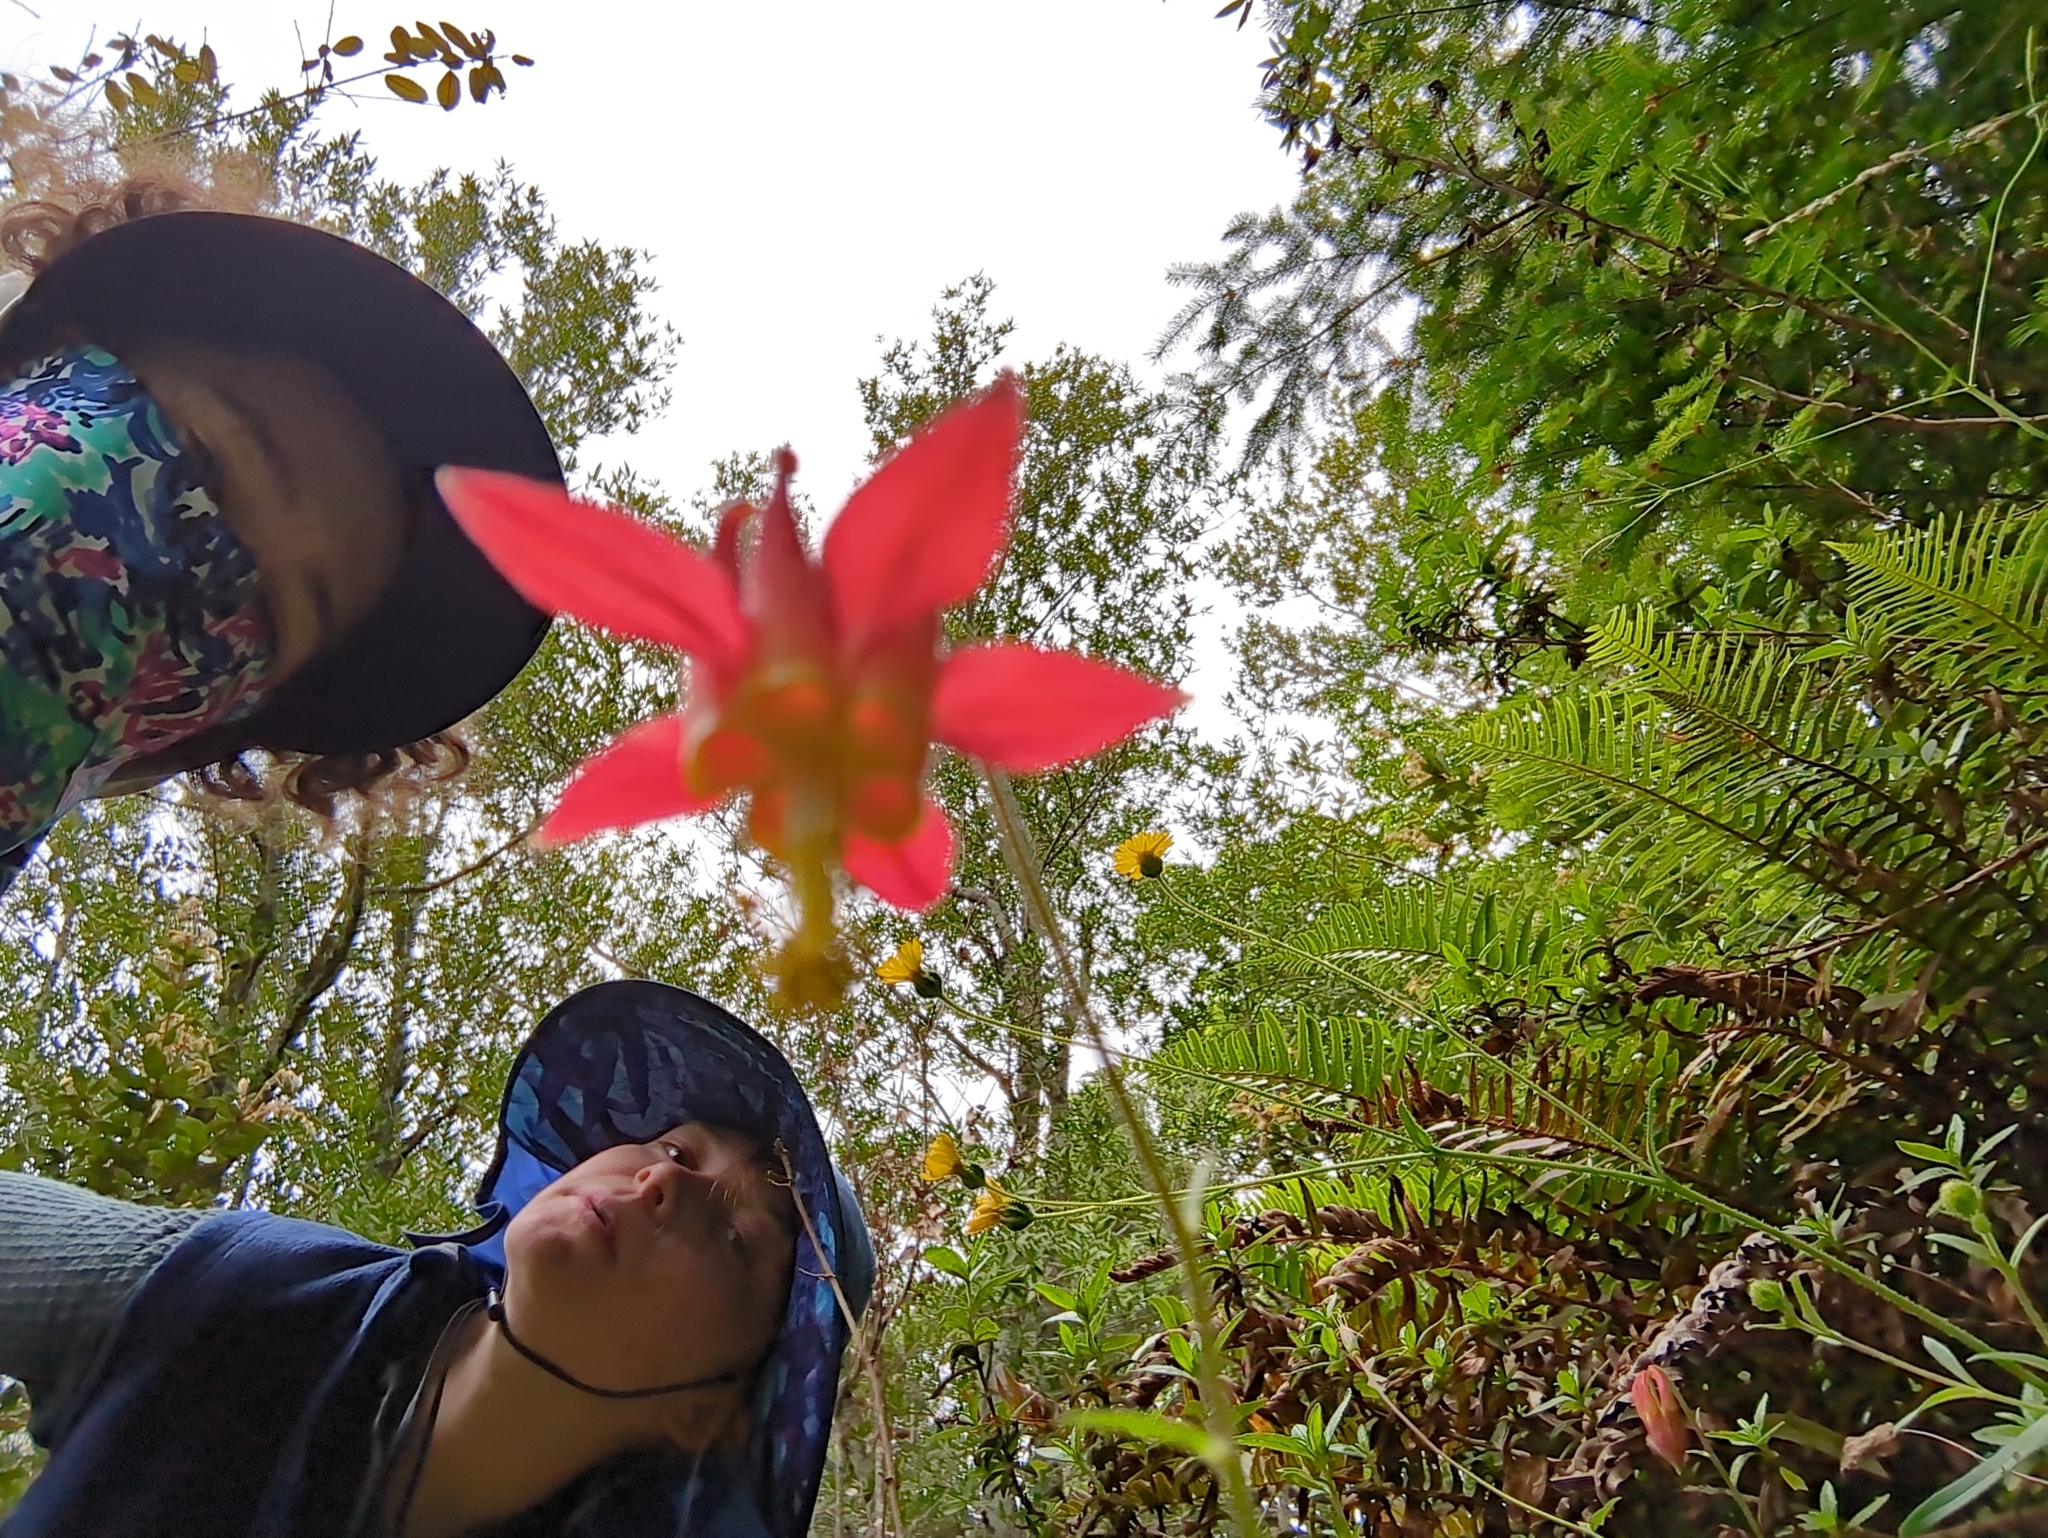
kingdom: Plantae
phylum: Tracheophyta
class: Magnoliopsida
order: Ranunculales
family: Ranunculaceae
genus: Aquilegia
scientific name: Aquilegia formosa
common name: Sitka columbine
